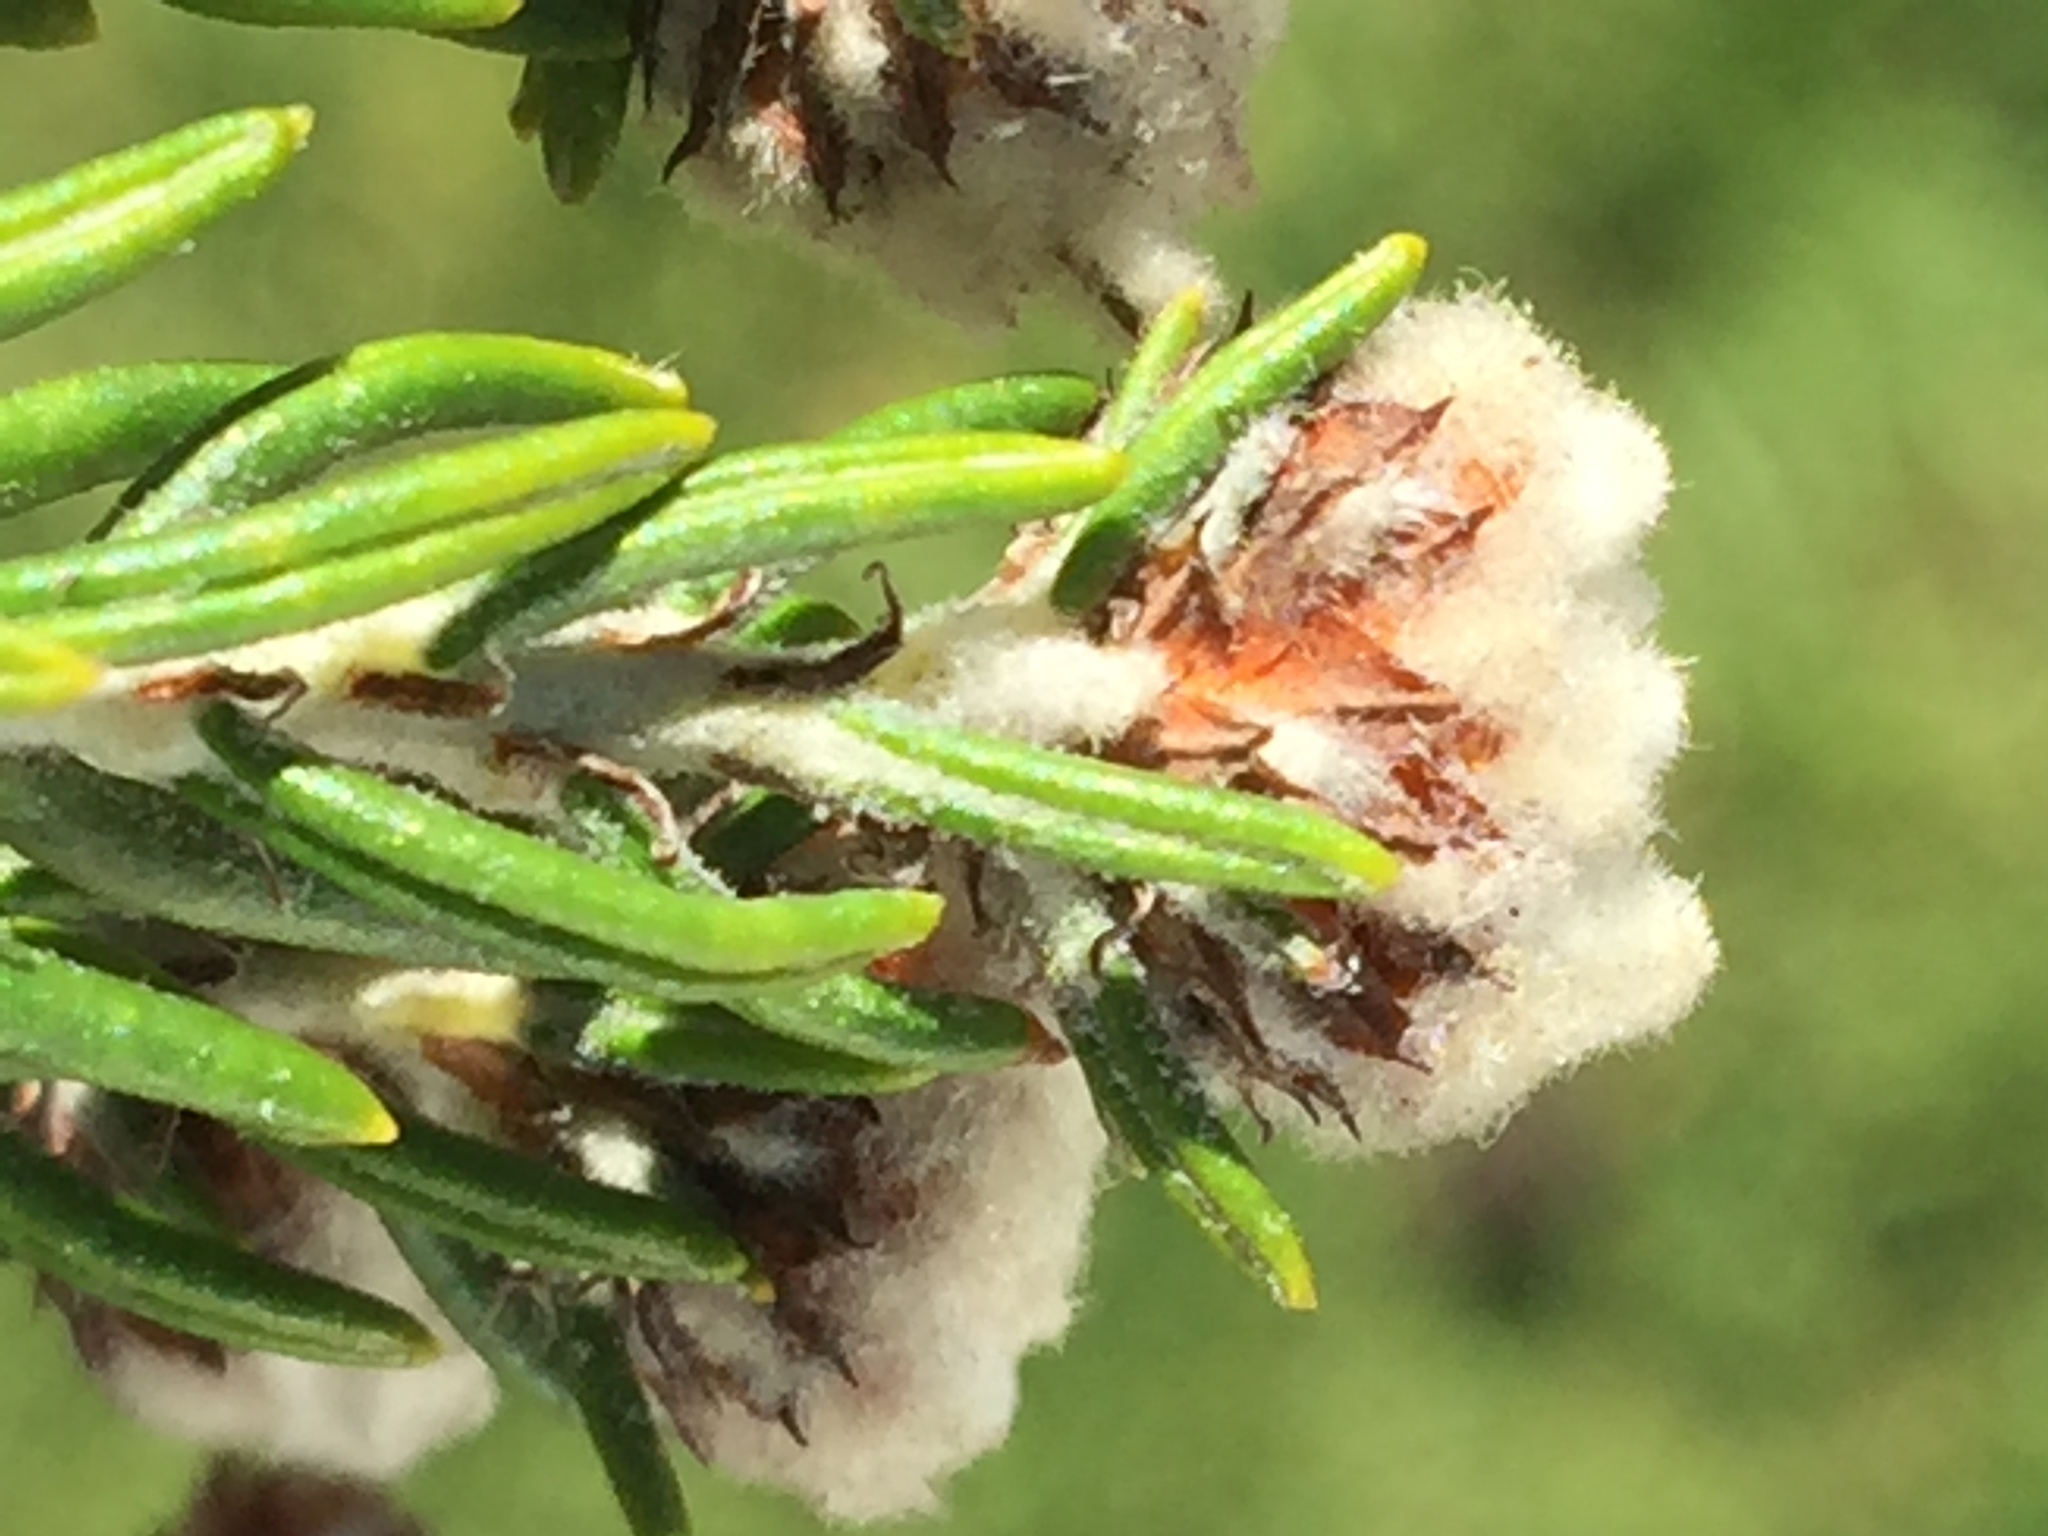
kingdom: Plantae
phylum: Tracheophyta
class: Magnoliopsida
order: Rosales
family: Rhamnaceae
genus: Trichocephalus
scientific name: Trichocephalus stipularis
